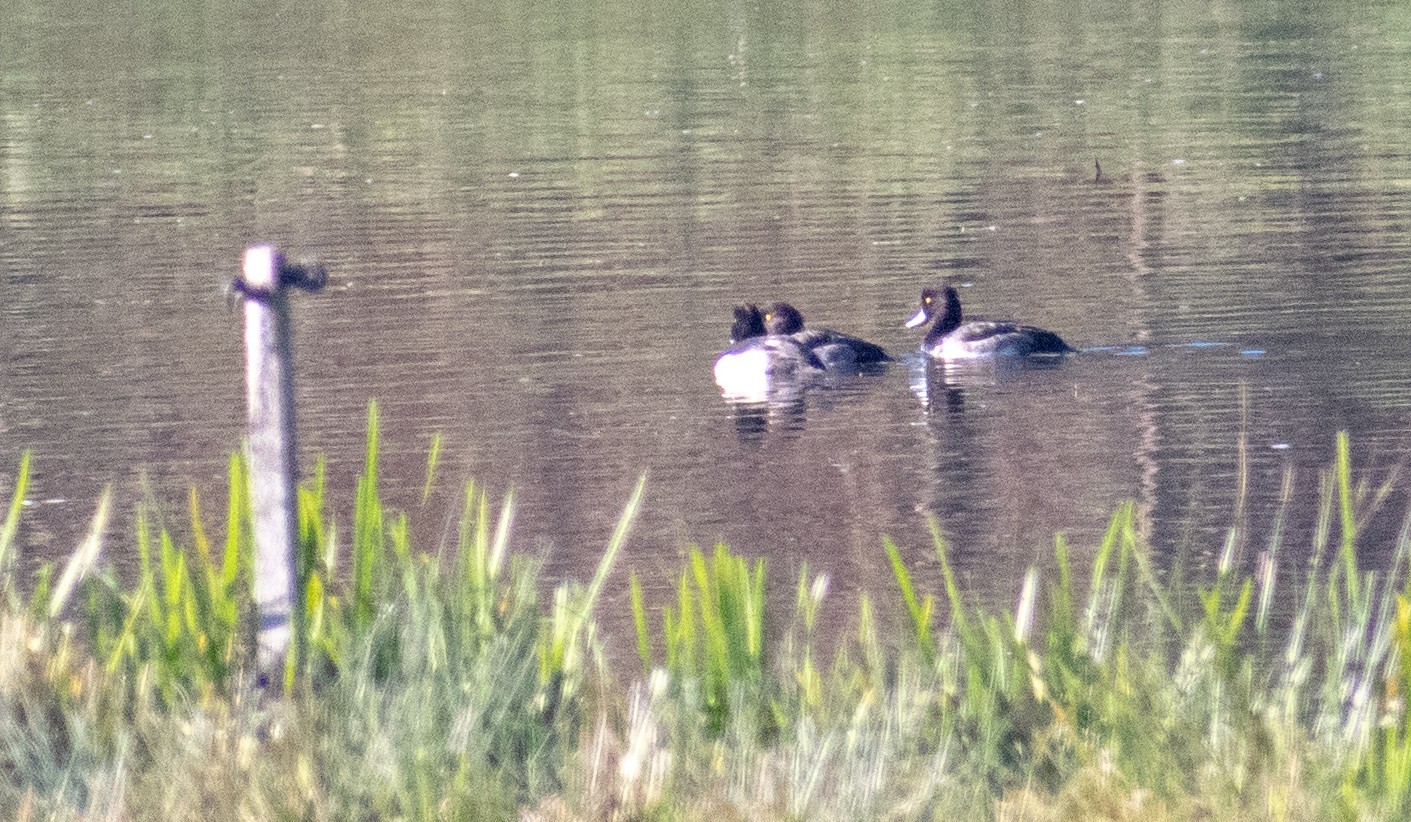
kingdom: Animalia
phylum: Chordata
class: Aves
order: Anseriformes
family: Anatidae
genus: Aythya
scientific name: Aythya fuligula
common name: Tufted duck
